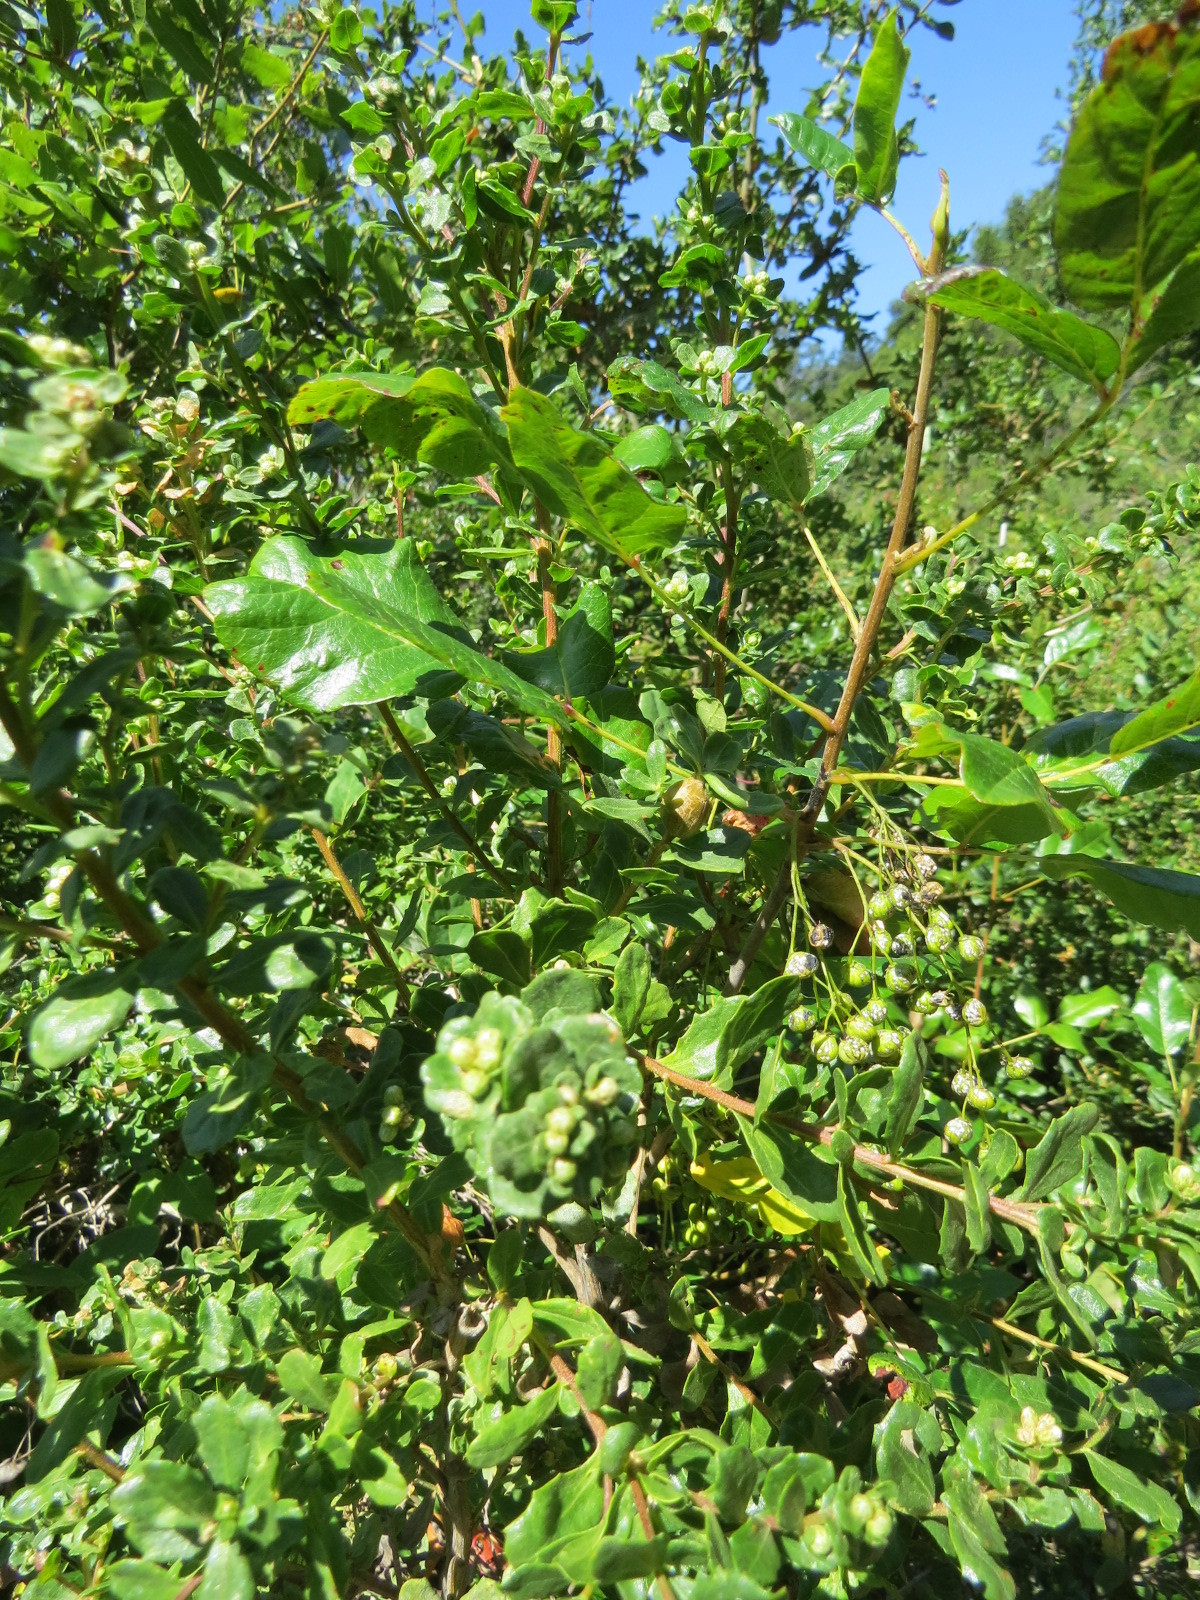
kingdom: Animalia
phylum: Arthropoda
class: Insecta
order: Lepidoptera
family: Gelechiidae
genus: Gnorimoschema
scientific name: Gnorimoschema baccharisella
